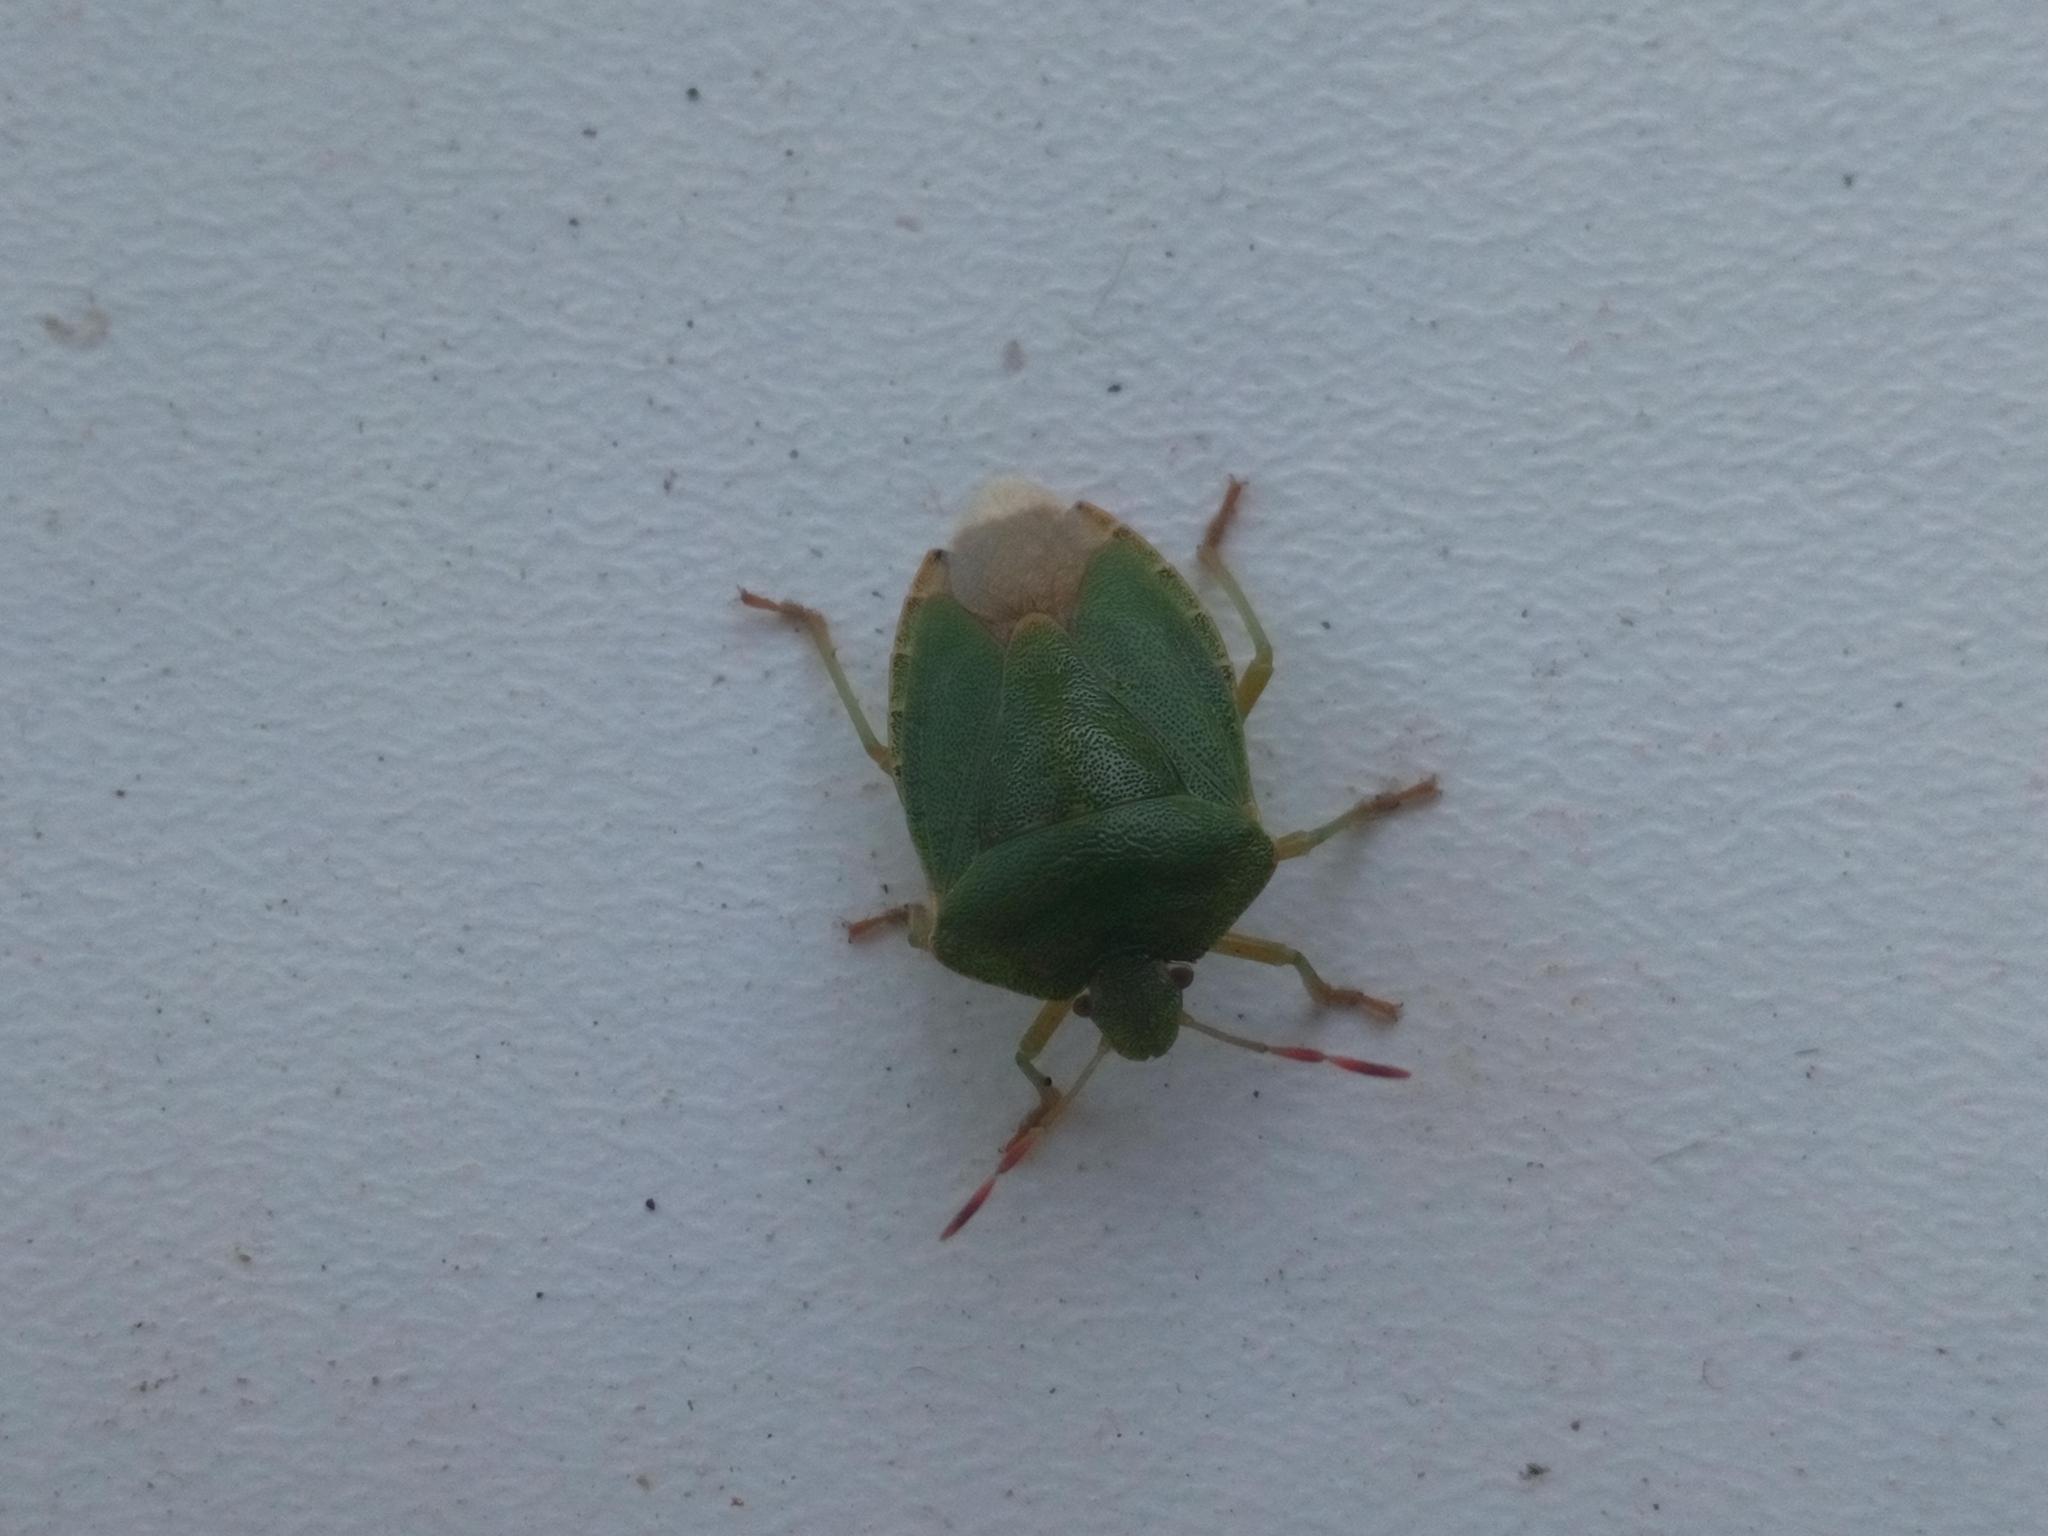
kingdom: Animalia
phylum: Arthropoda
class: Insecta
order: Hemiptera
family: Pentatomidae
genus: Palomena
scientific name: Palomena prasina
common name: Green shieldbug
